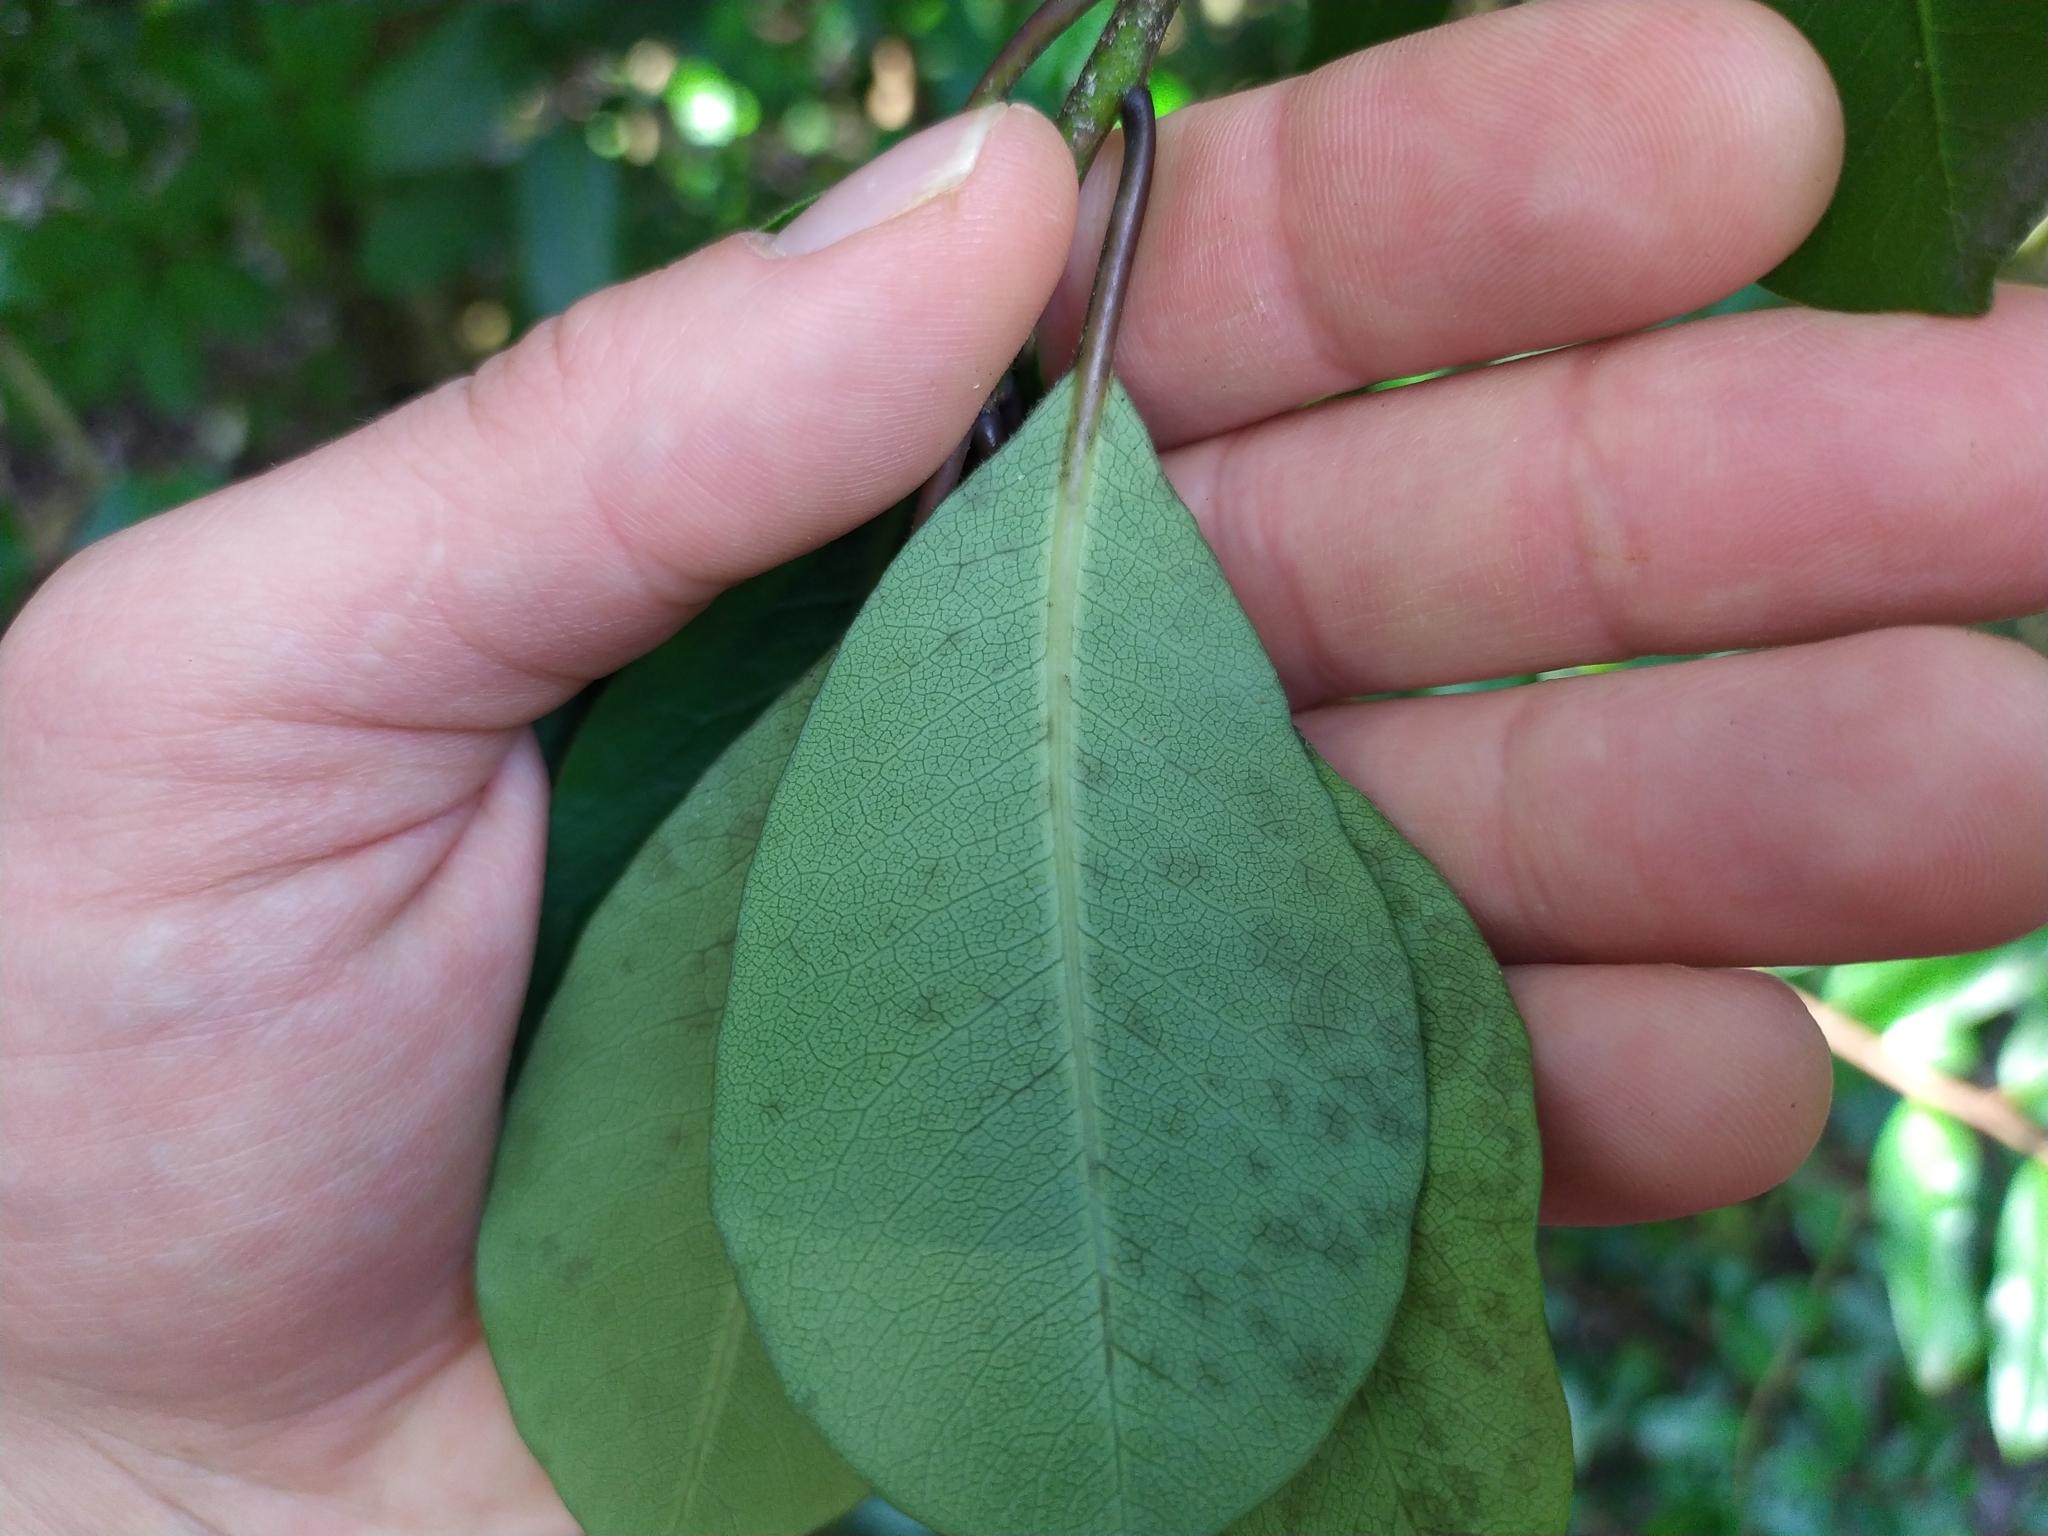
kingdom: Plantae
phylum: Tracheophyta
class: Magnoliopsida
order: Apiales
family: Pittosporaceae
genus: Pittosporum
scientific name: Pittosporum umbellatum
